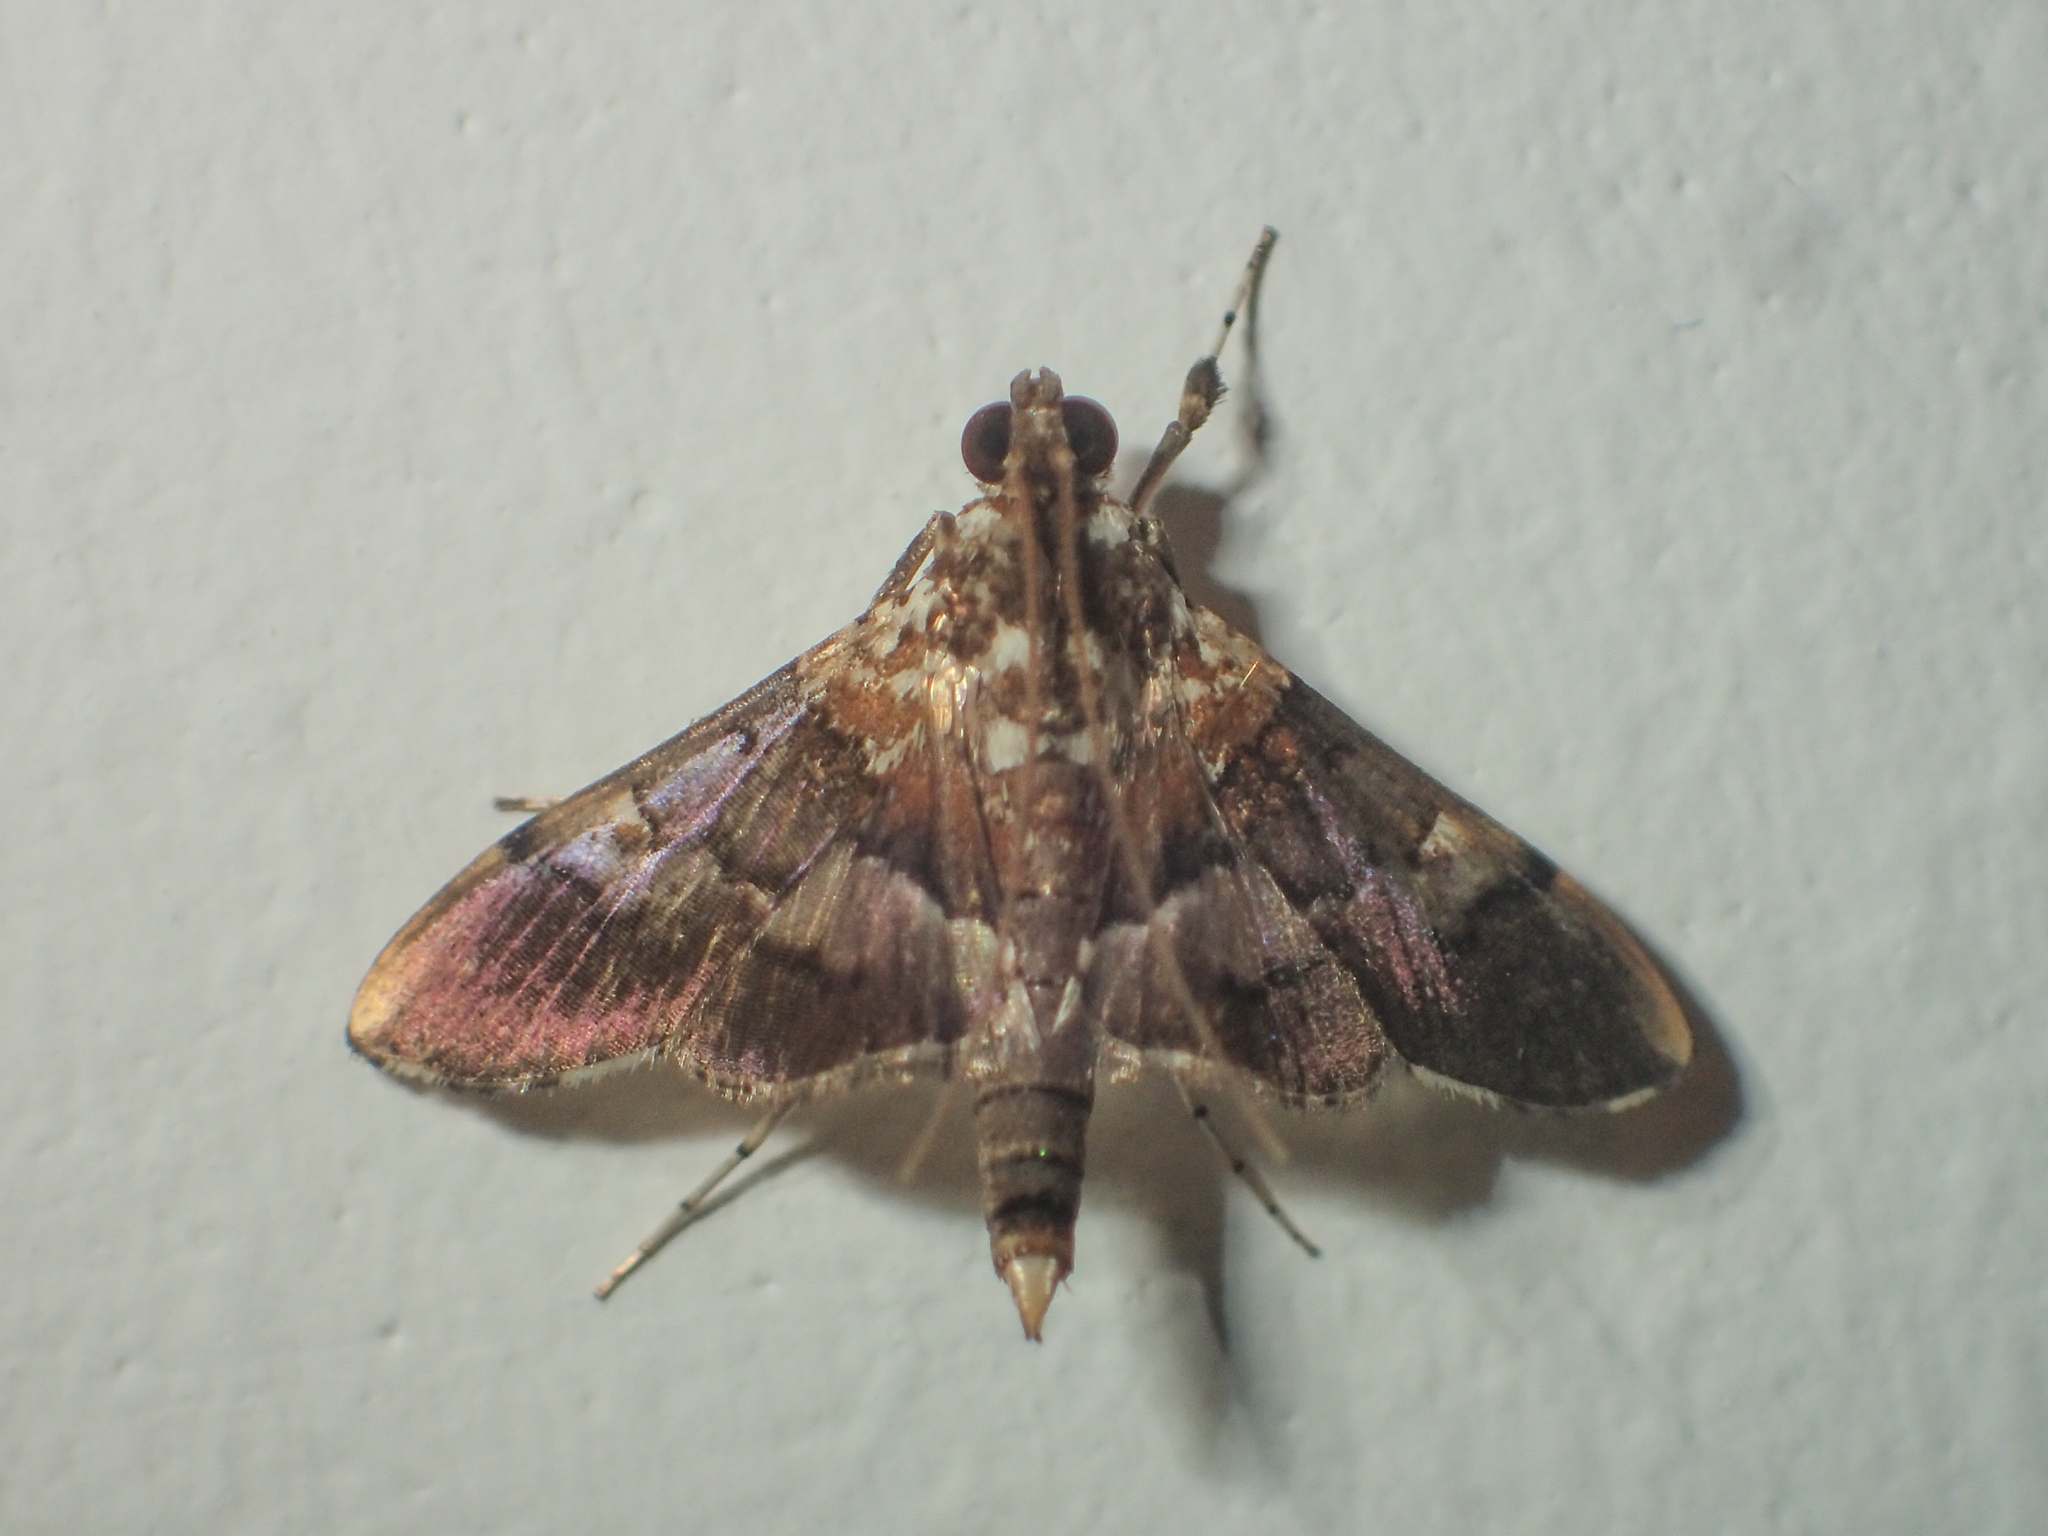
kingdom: Animalia
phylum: Arthropoda
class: Insecta
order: Lepidoptera
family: Crambidae
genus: Aetholix
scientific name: Aetholix flavibasalis
